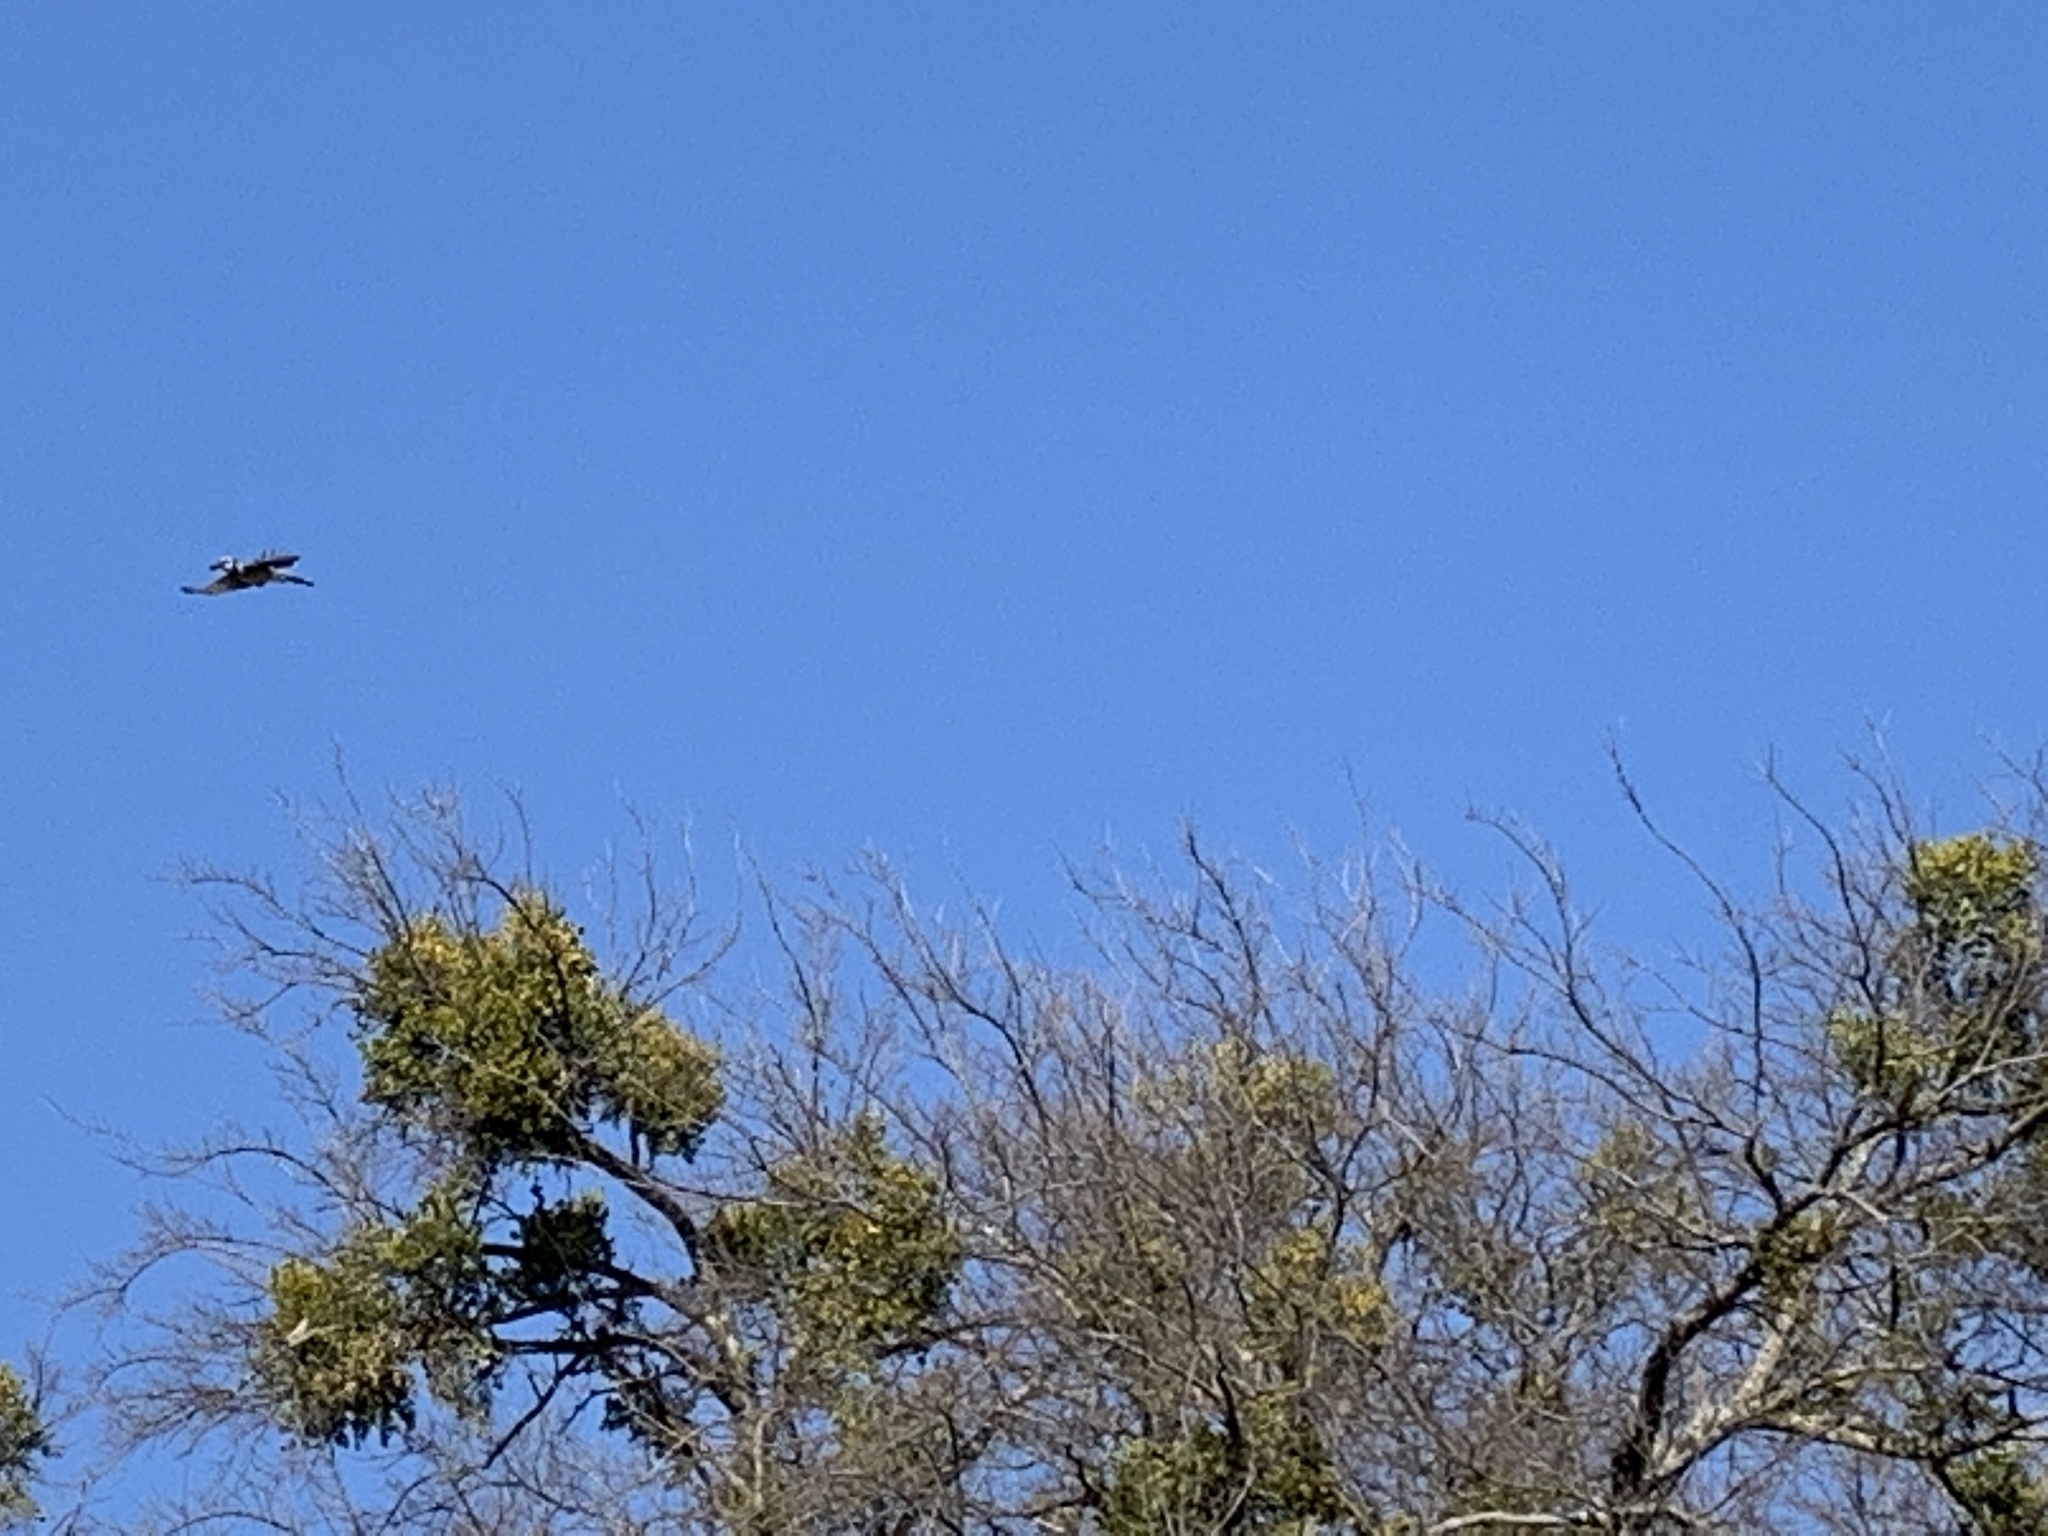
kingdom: Animalia
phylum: Chordata
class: Aves
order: Passeriformes
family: Corvidae
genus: Cyanocitta
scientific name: Cyanocitta cristata
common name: Blue jay
